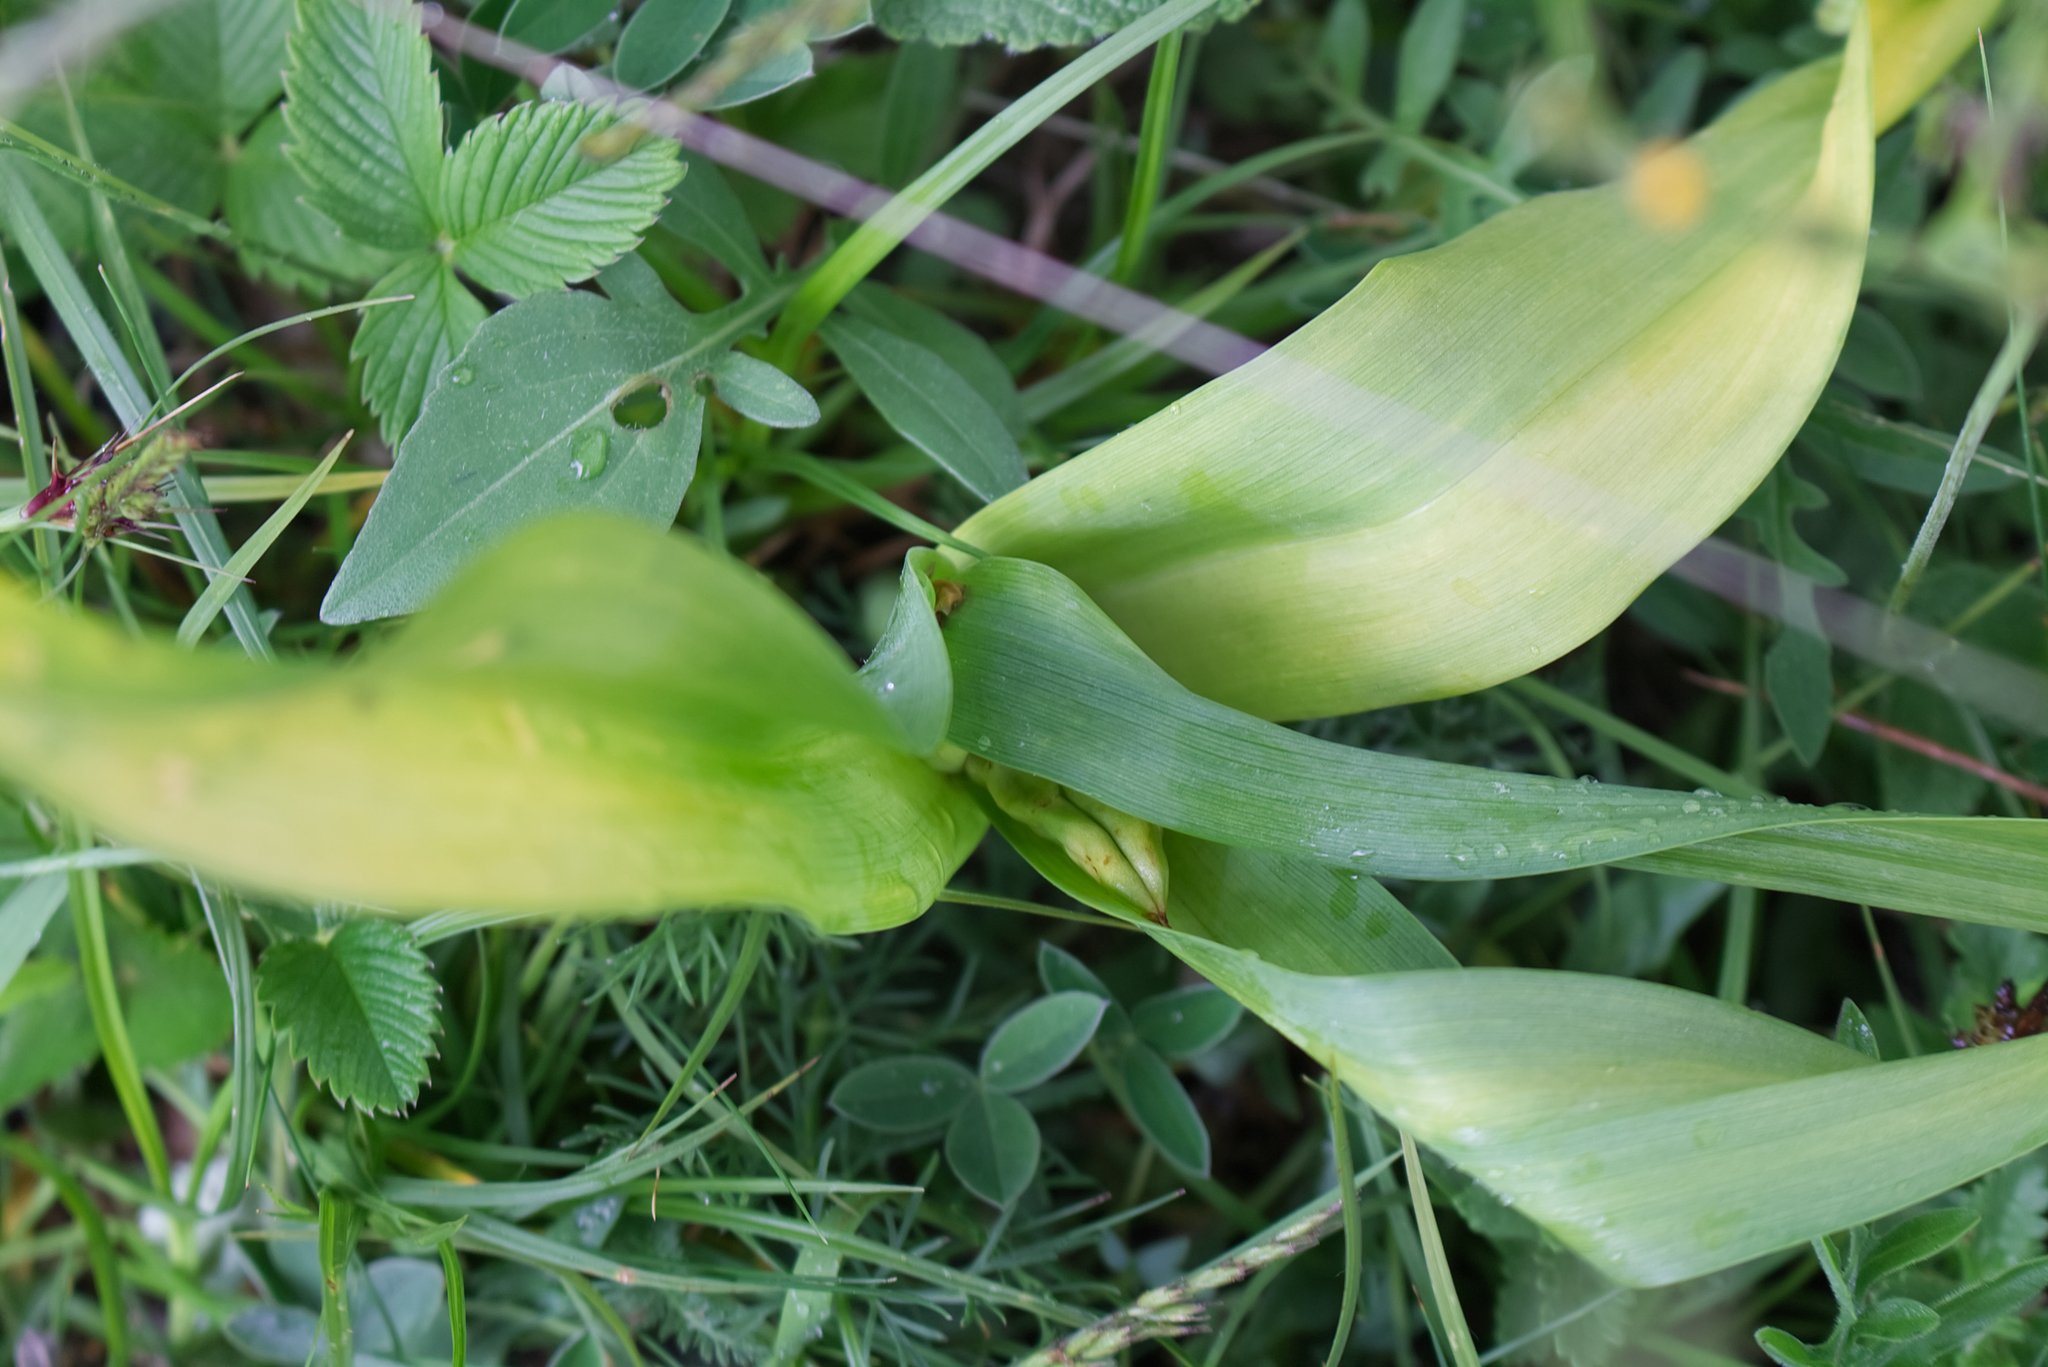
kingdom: Plantae
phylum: Tracheophyta
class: Liliopsida
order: Liliales
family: Colchicaceae
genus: Colchicum
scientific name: Colchicum autumnale
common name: Autumn crocus
